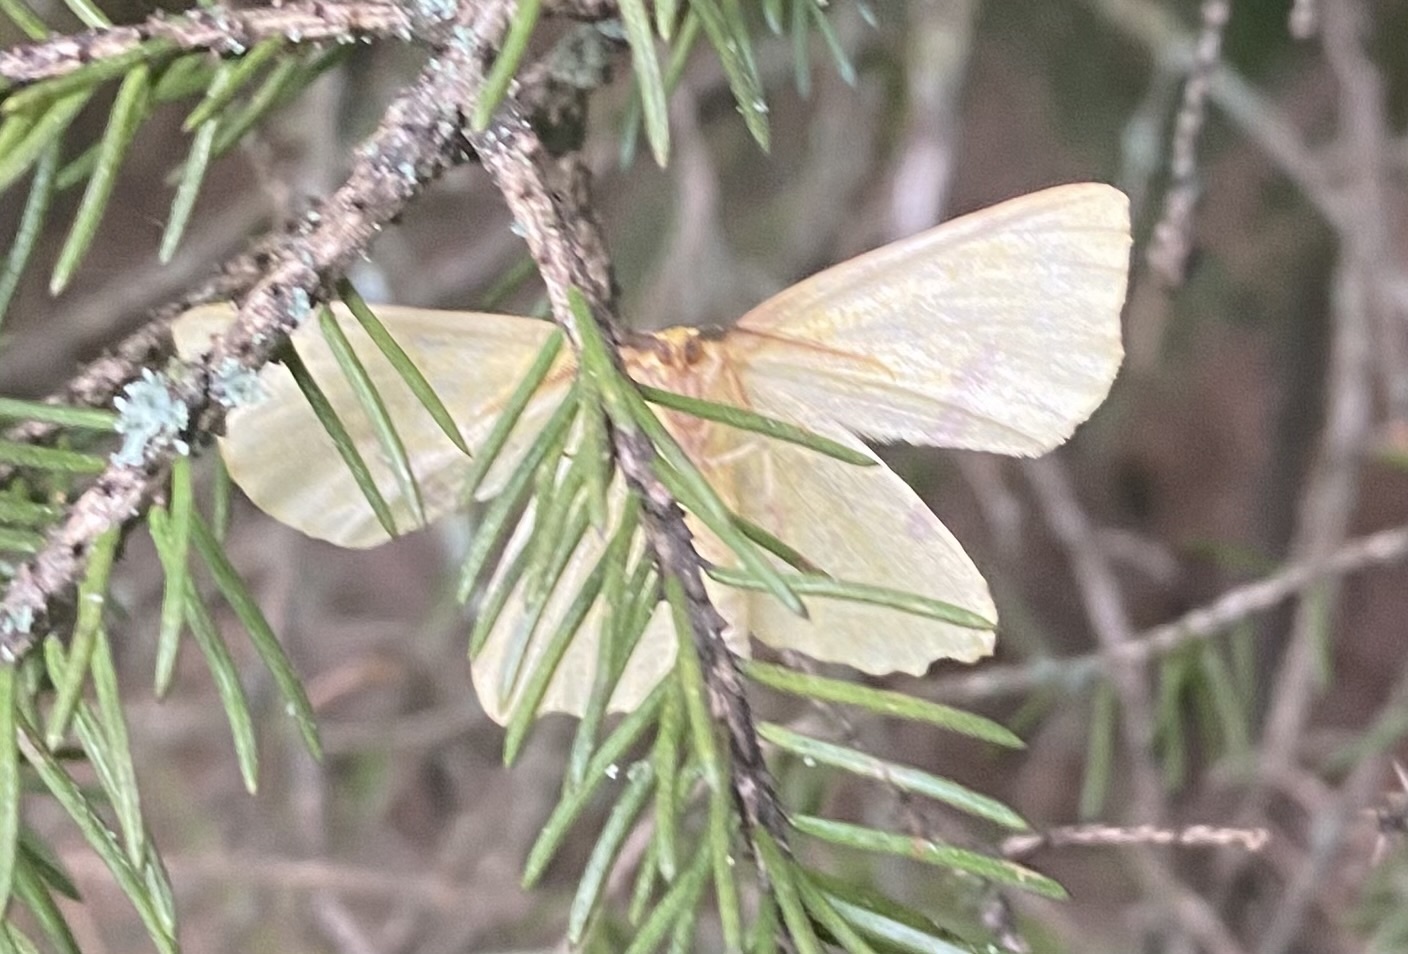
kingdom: Animalia
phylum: Arthropoda
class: Insecta
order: Lepidoptera
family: Geometridae
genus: Xanthotype
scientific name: Xanthotype
